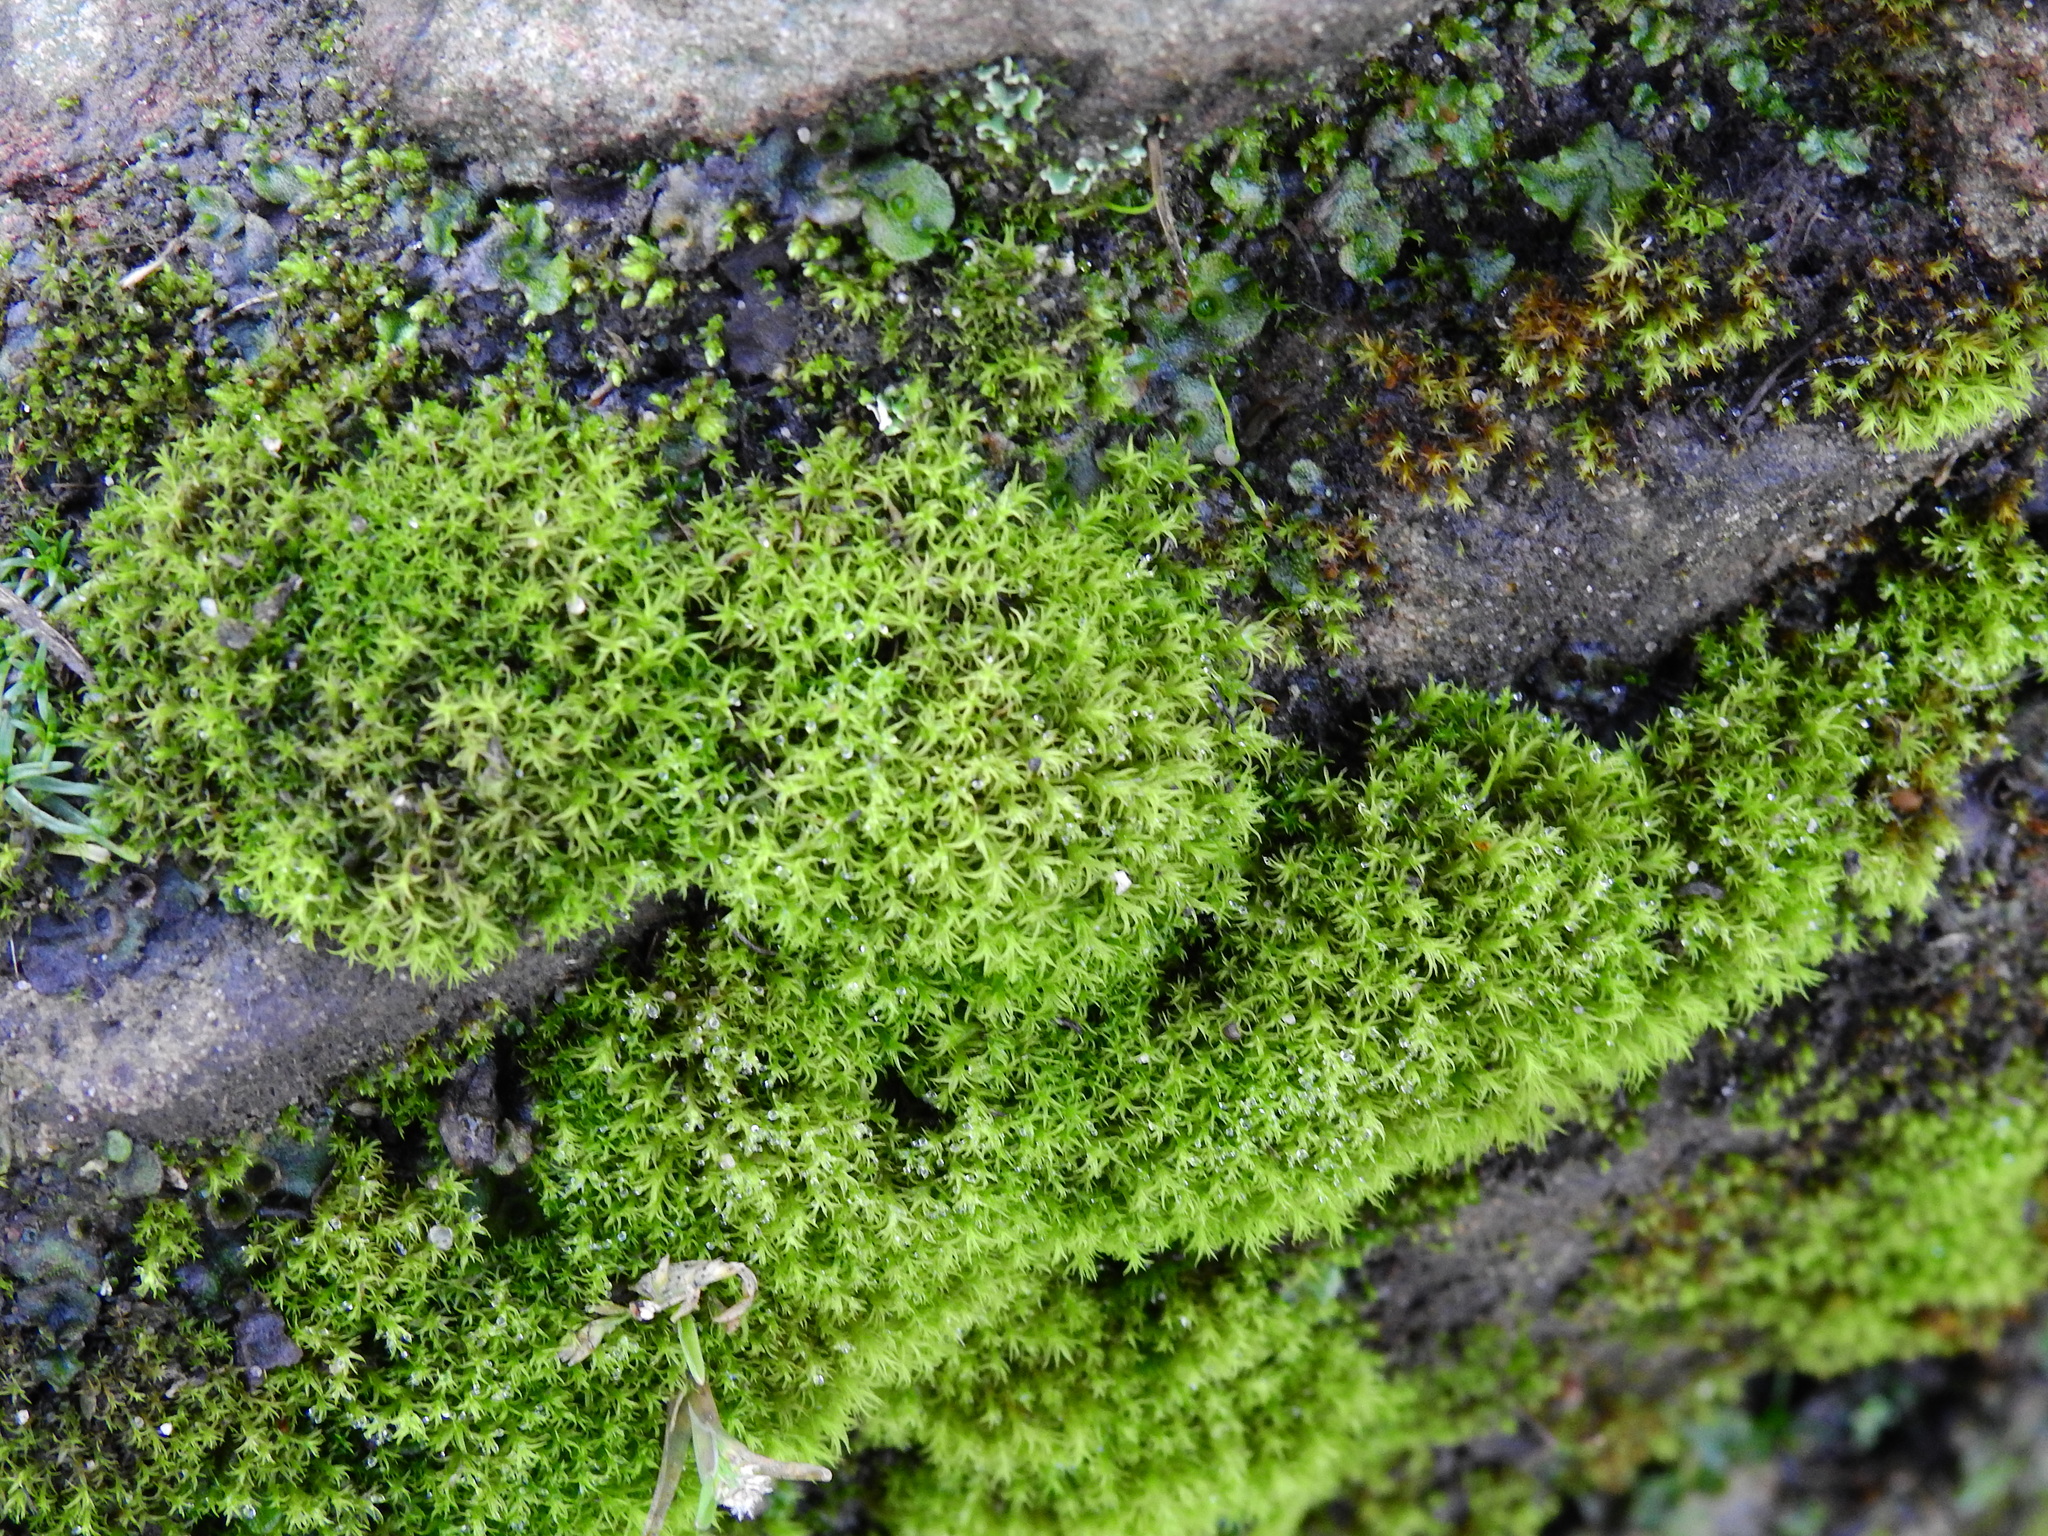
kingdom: Plantae
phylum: Bryophyta
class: Bryopsida
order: Pottiales
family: Pottiaceae
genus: Vinealobryum
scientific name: Vinealobryum insulanum
